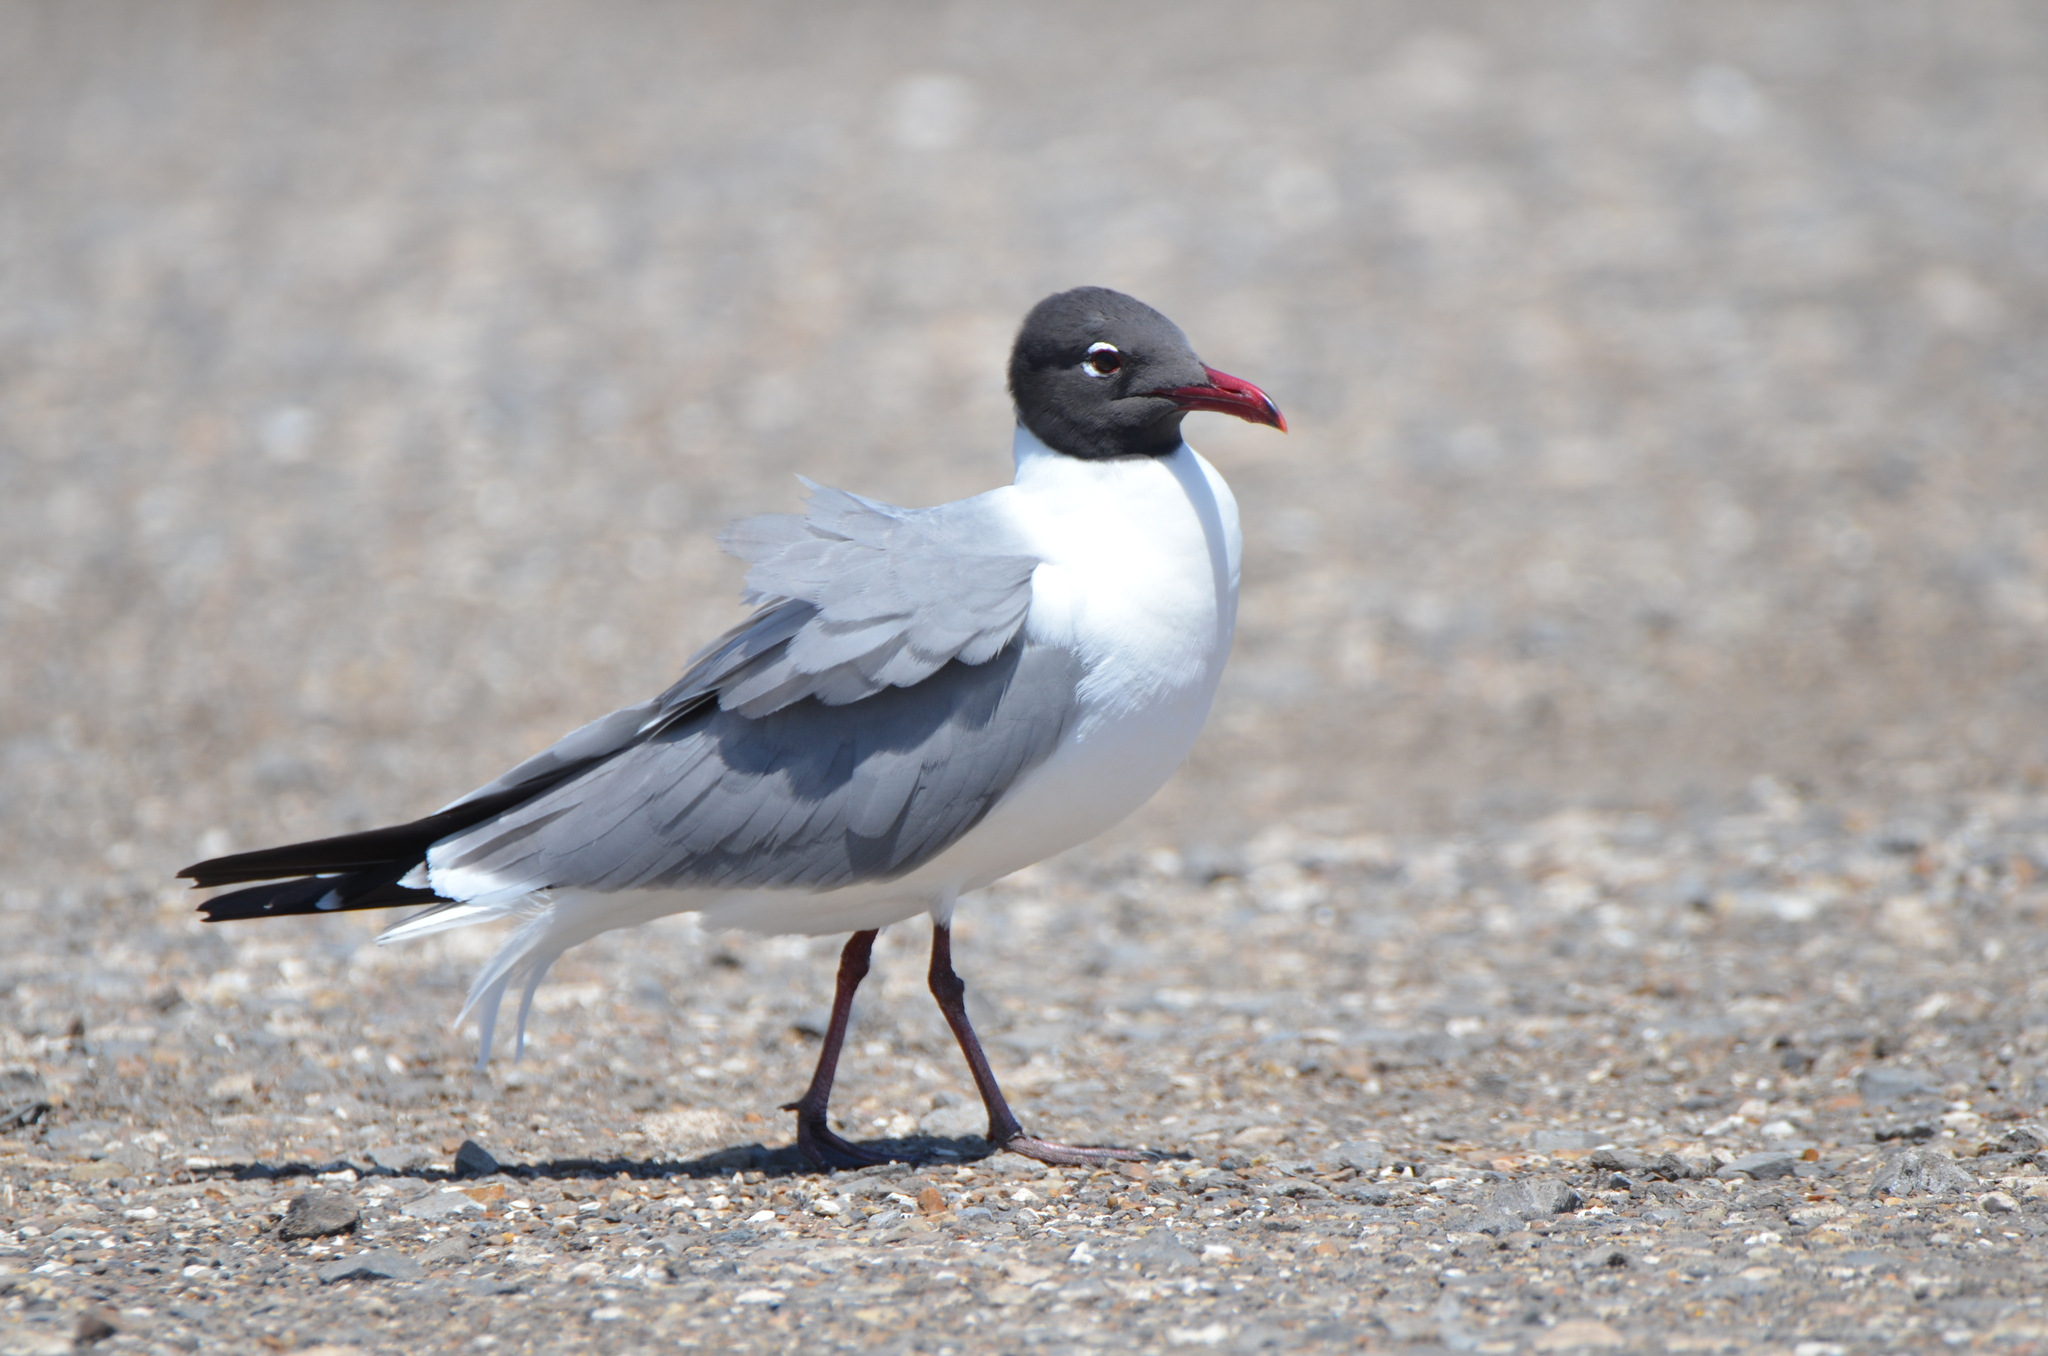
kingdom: Animalia
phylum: Chordata
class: Aves
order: Charadriiformes
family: Laridae
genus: Leucophaeus
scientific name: Leucophaeus atricilla
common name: Laughing gull
